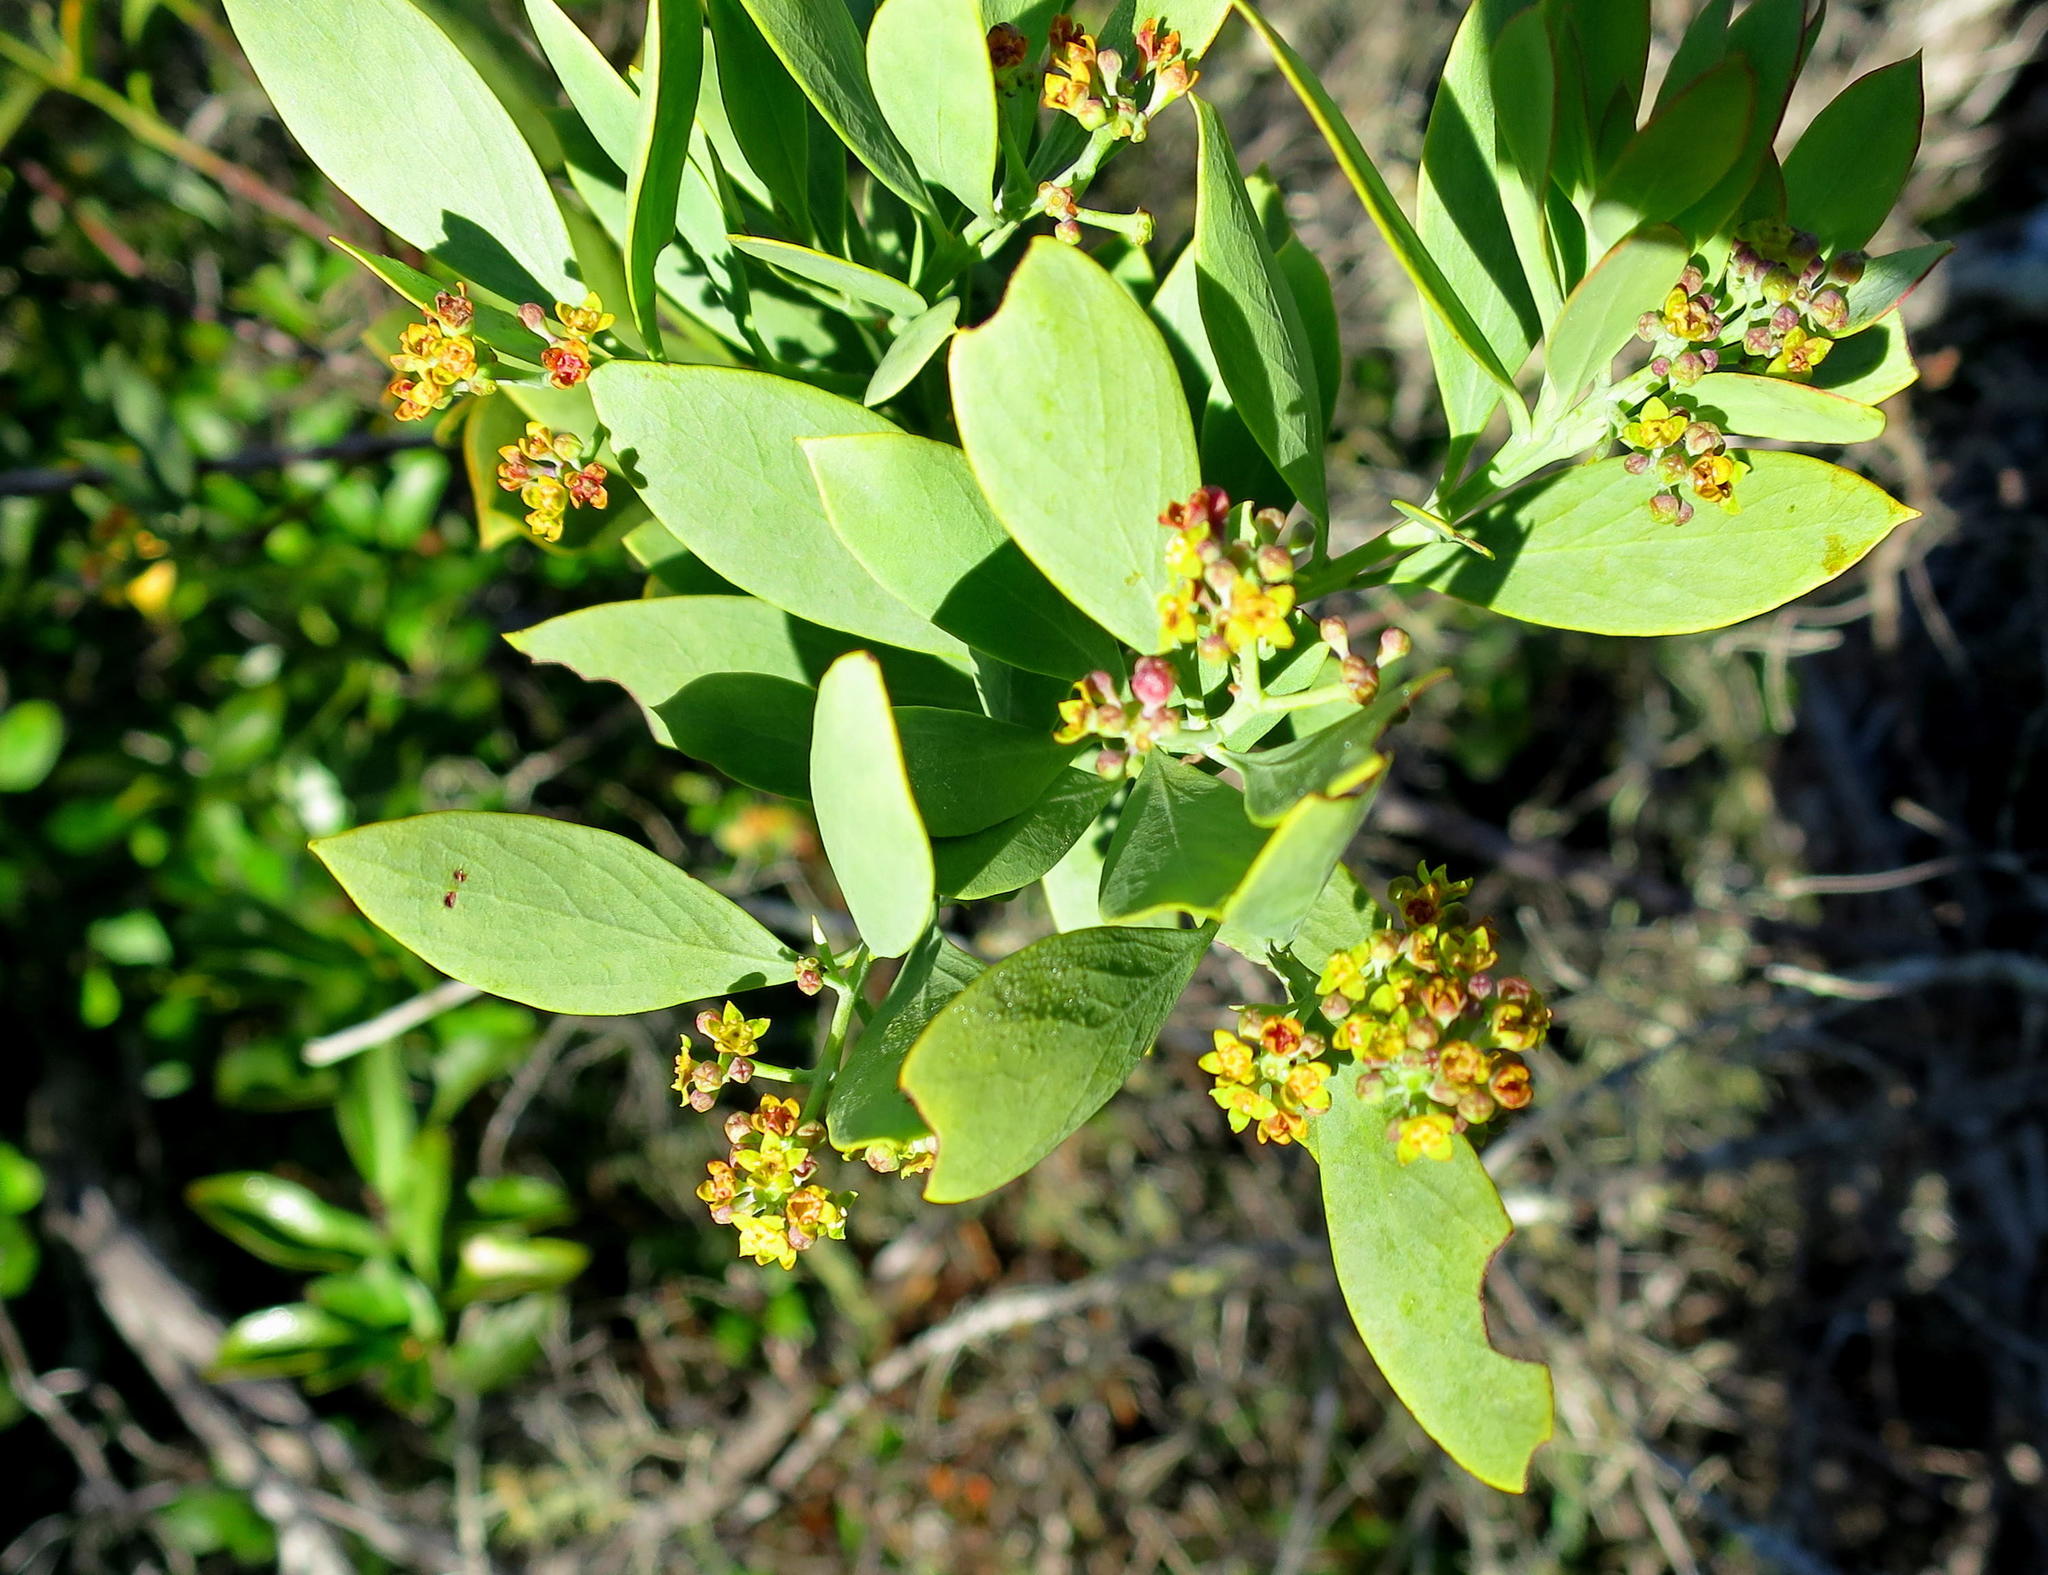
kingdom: Plantae
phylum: Tracheophyta
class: Magnoliopsida
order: Santalales
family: Santalaceae
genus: Osyris
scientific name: Osyris compressa
